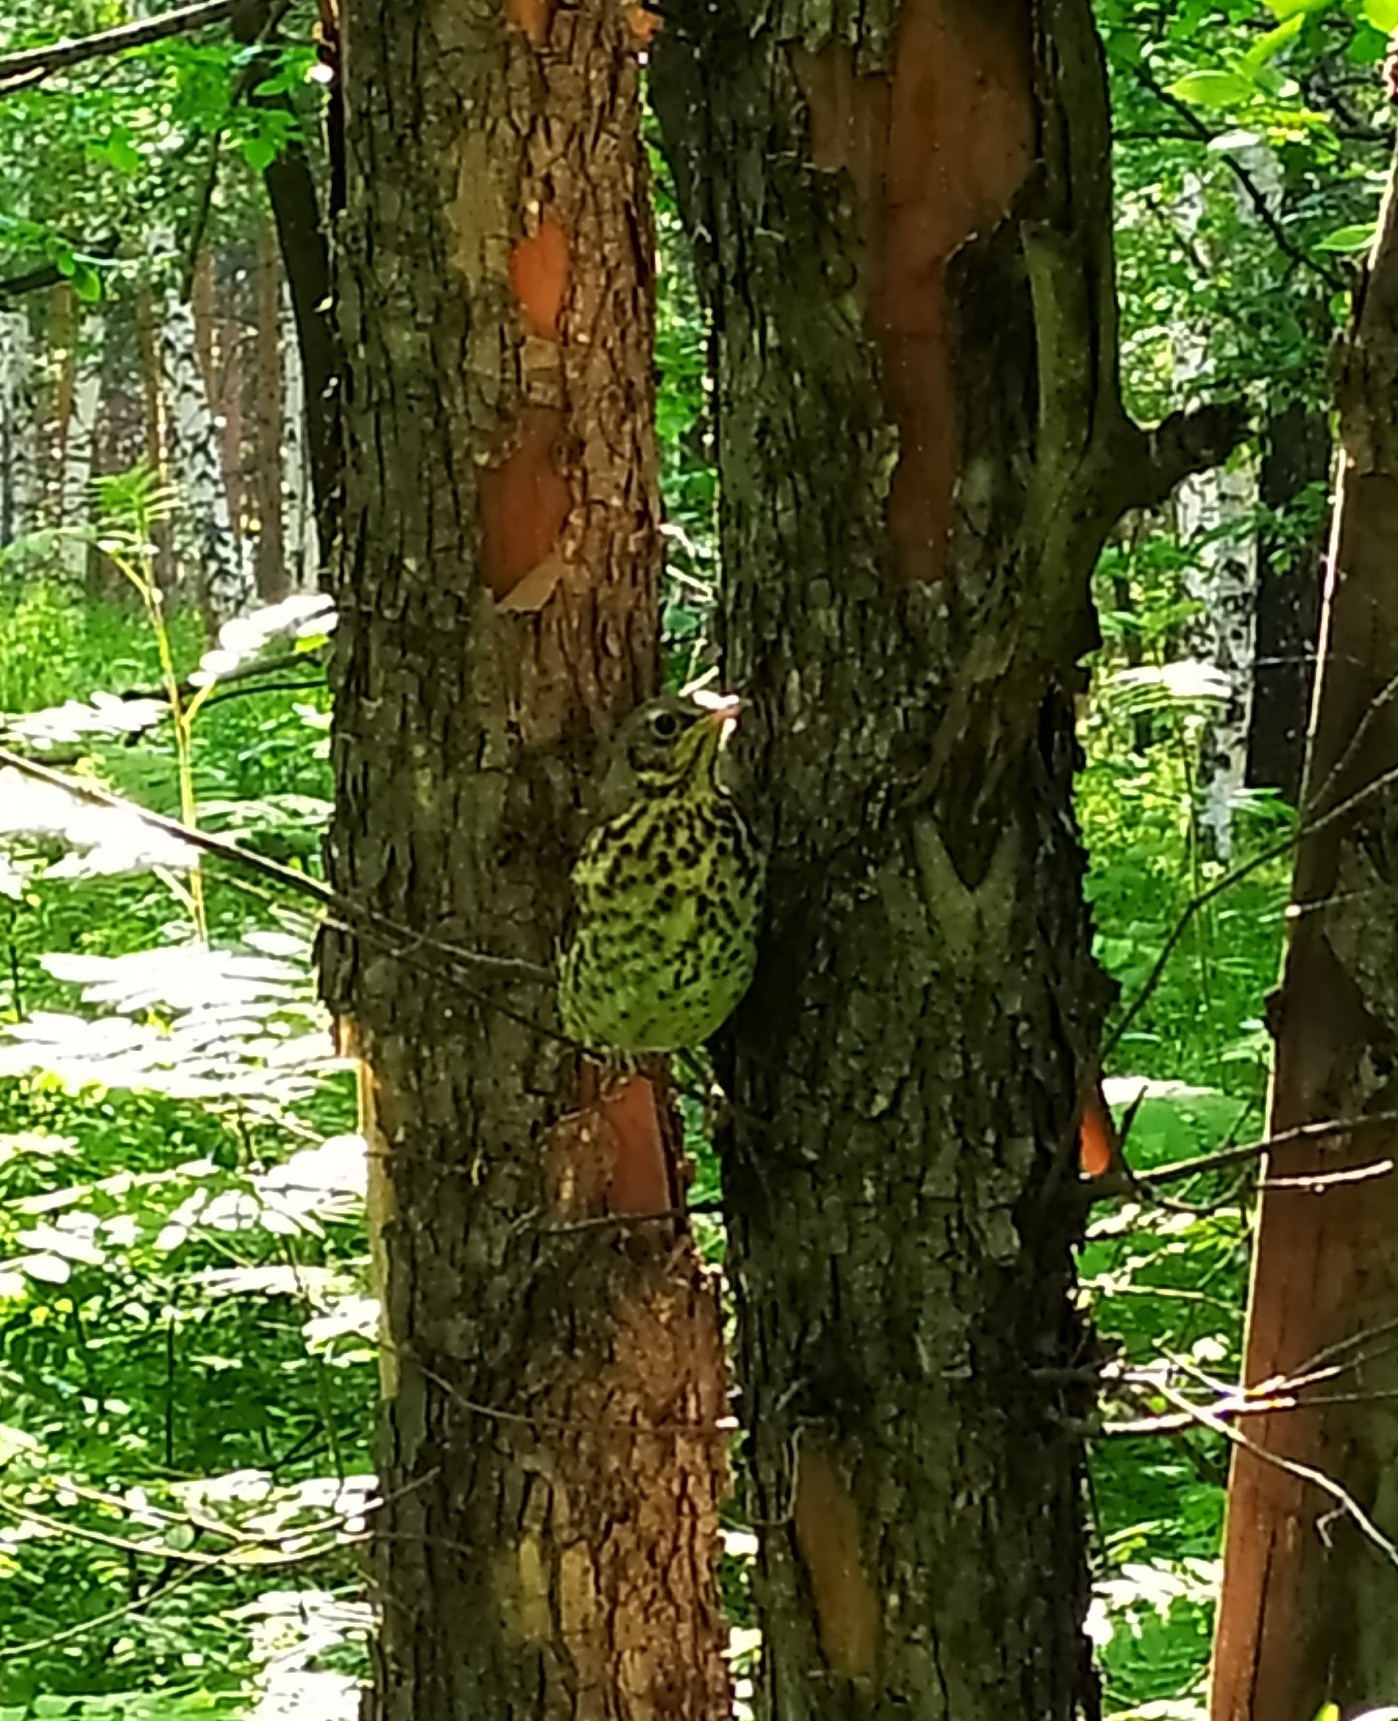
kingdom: Animalia
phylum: Chordata
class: Aves
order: Passeriformes
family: Turdidae
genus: Turdus
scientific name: Turdus pilaris
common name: Fieldfare
